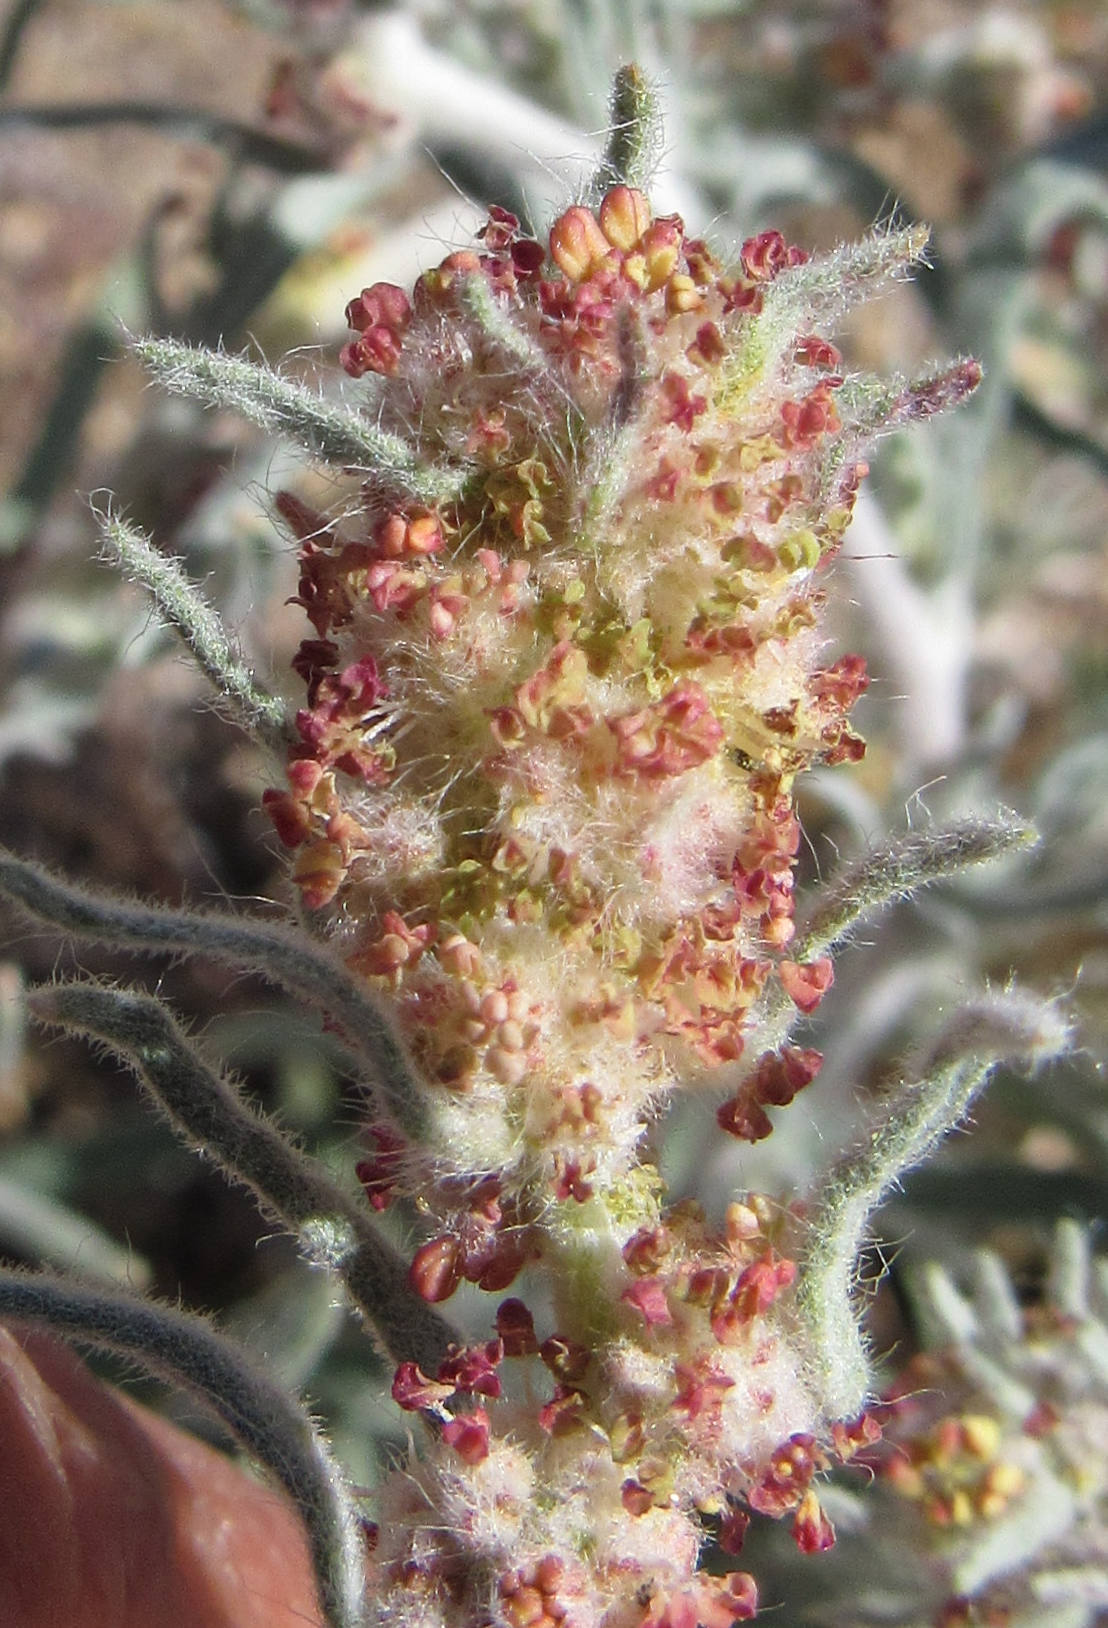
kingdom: Plantae
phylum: Tracheophyta
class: Magnoliopsida
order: Caryophyllales
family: Amaranthaceae
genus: Krascheninnikovia
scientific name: Krascheninnikovia lanata
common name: Winterfat
